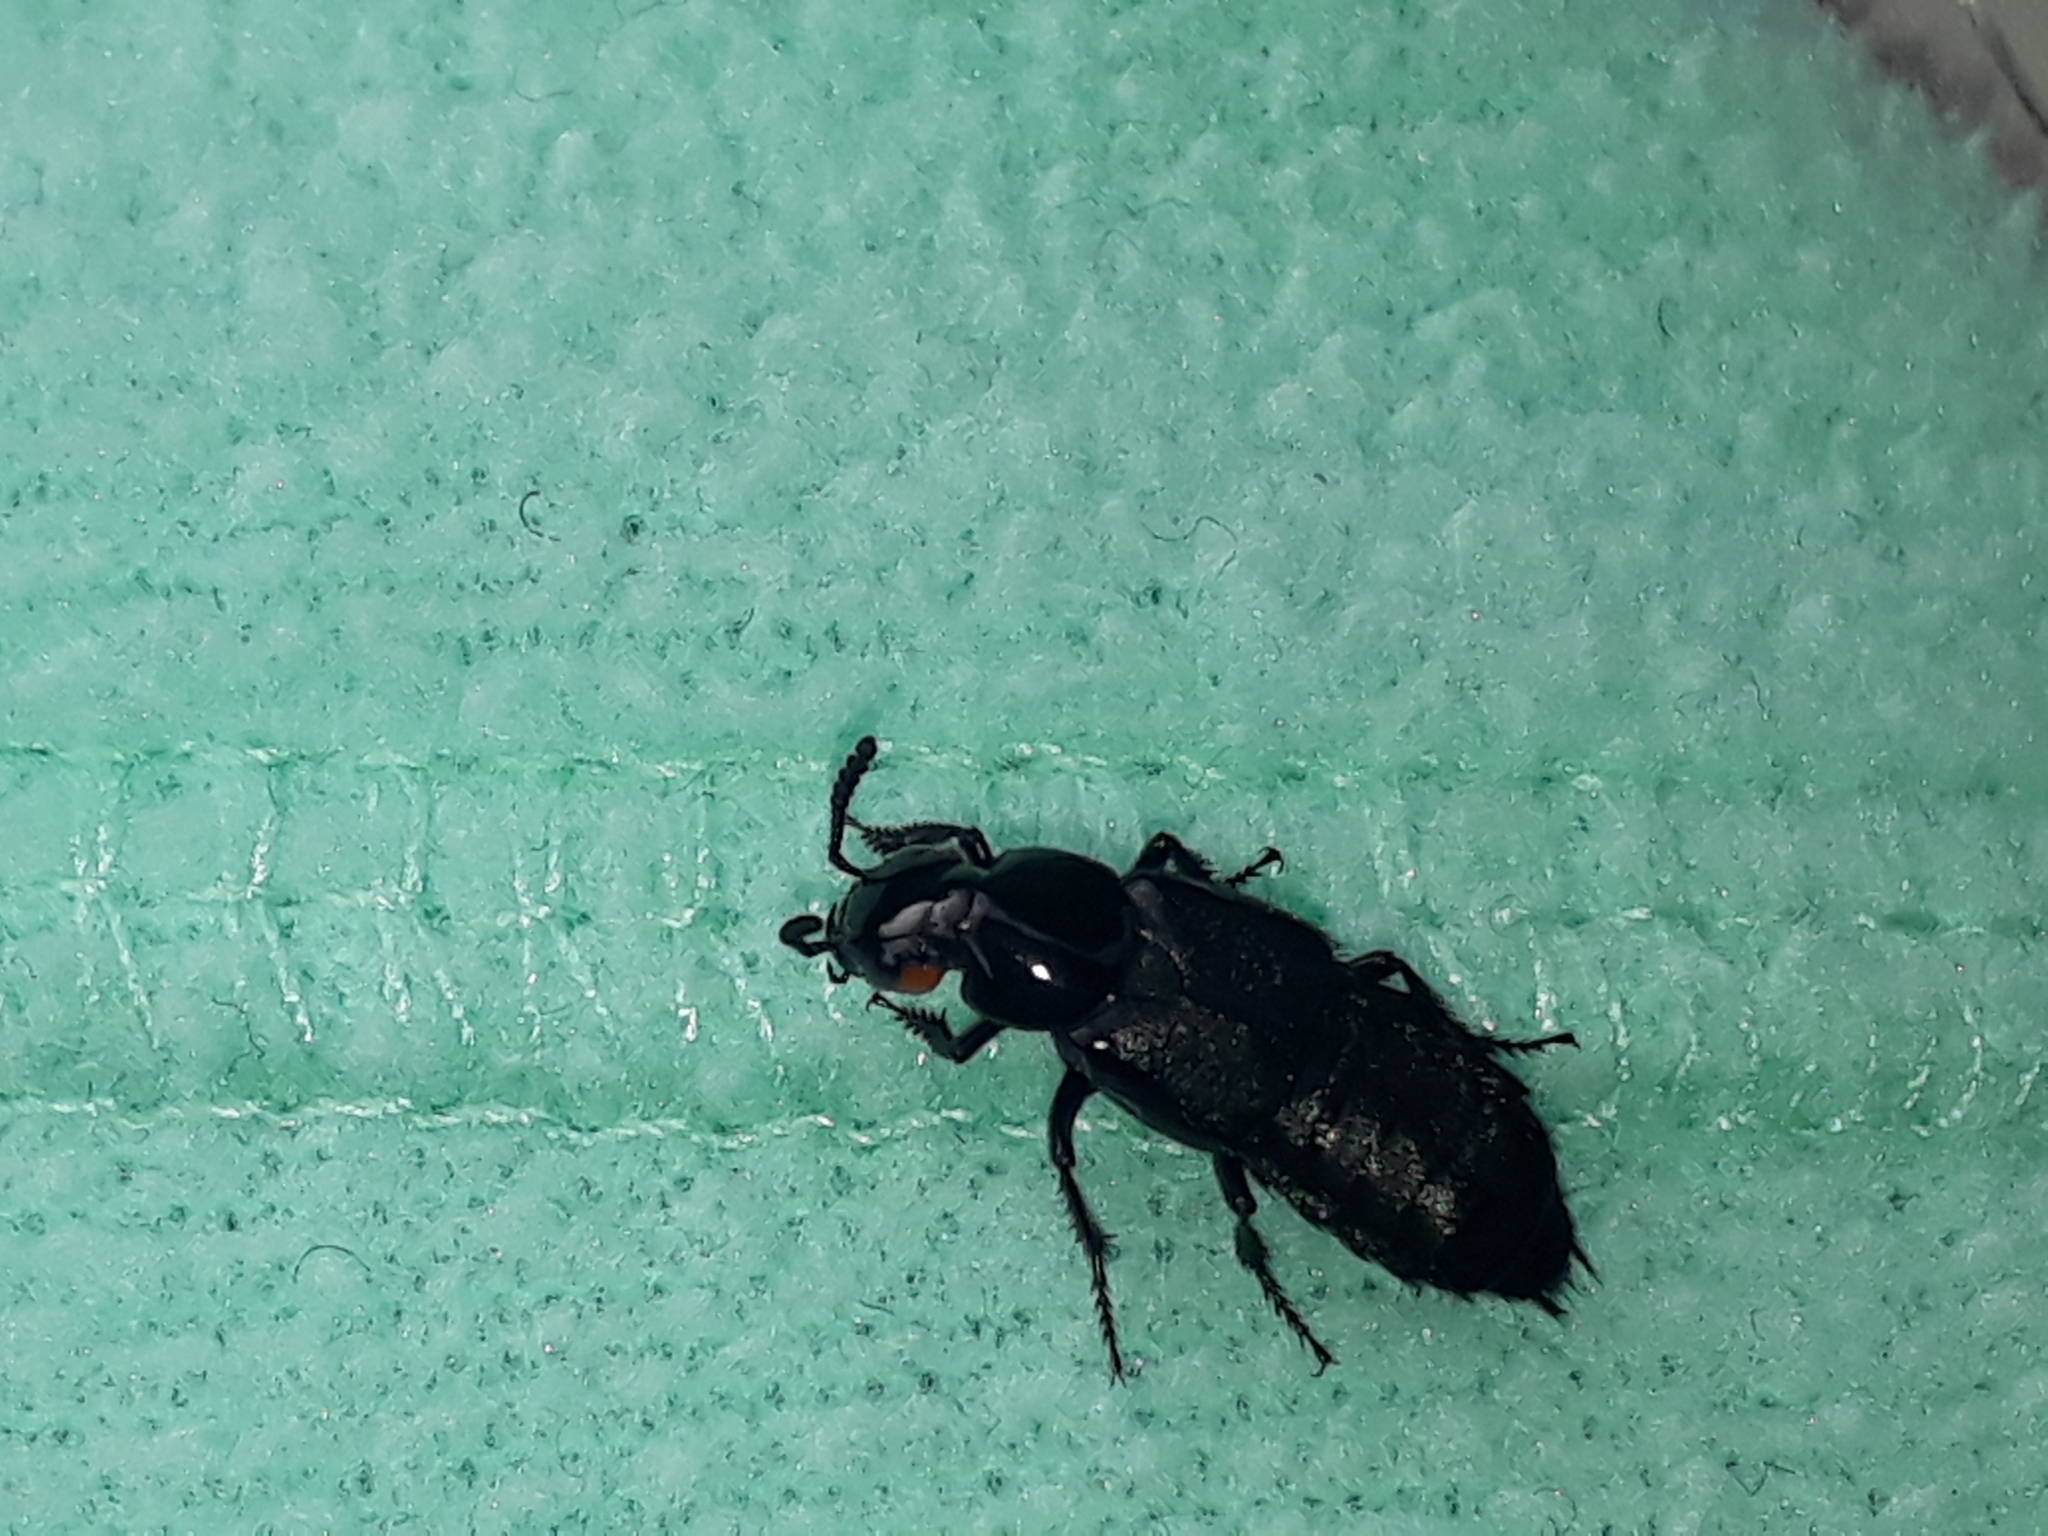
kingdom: Animalia
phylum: Arthropoda
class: Insecta
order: Coleoptera
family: Staphylinidae
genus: Creophilus
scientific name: Creophilus oculatus
